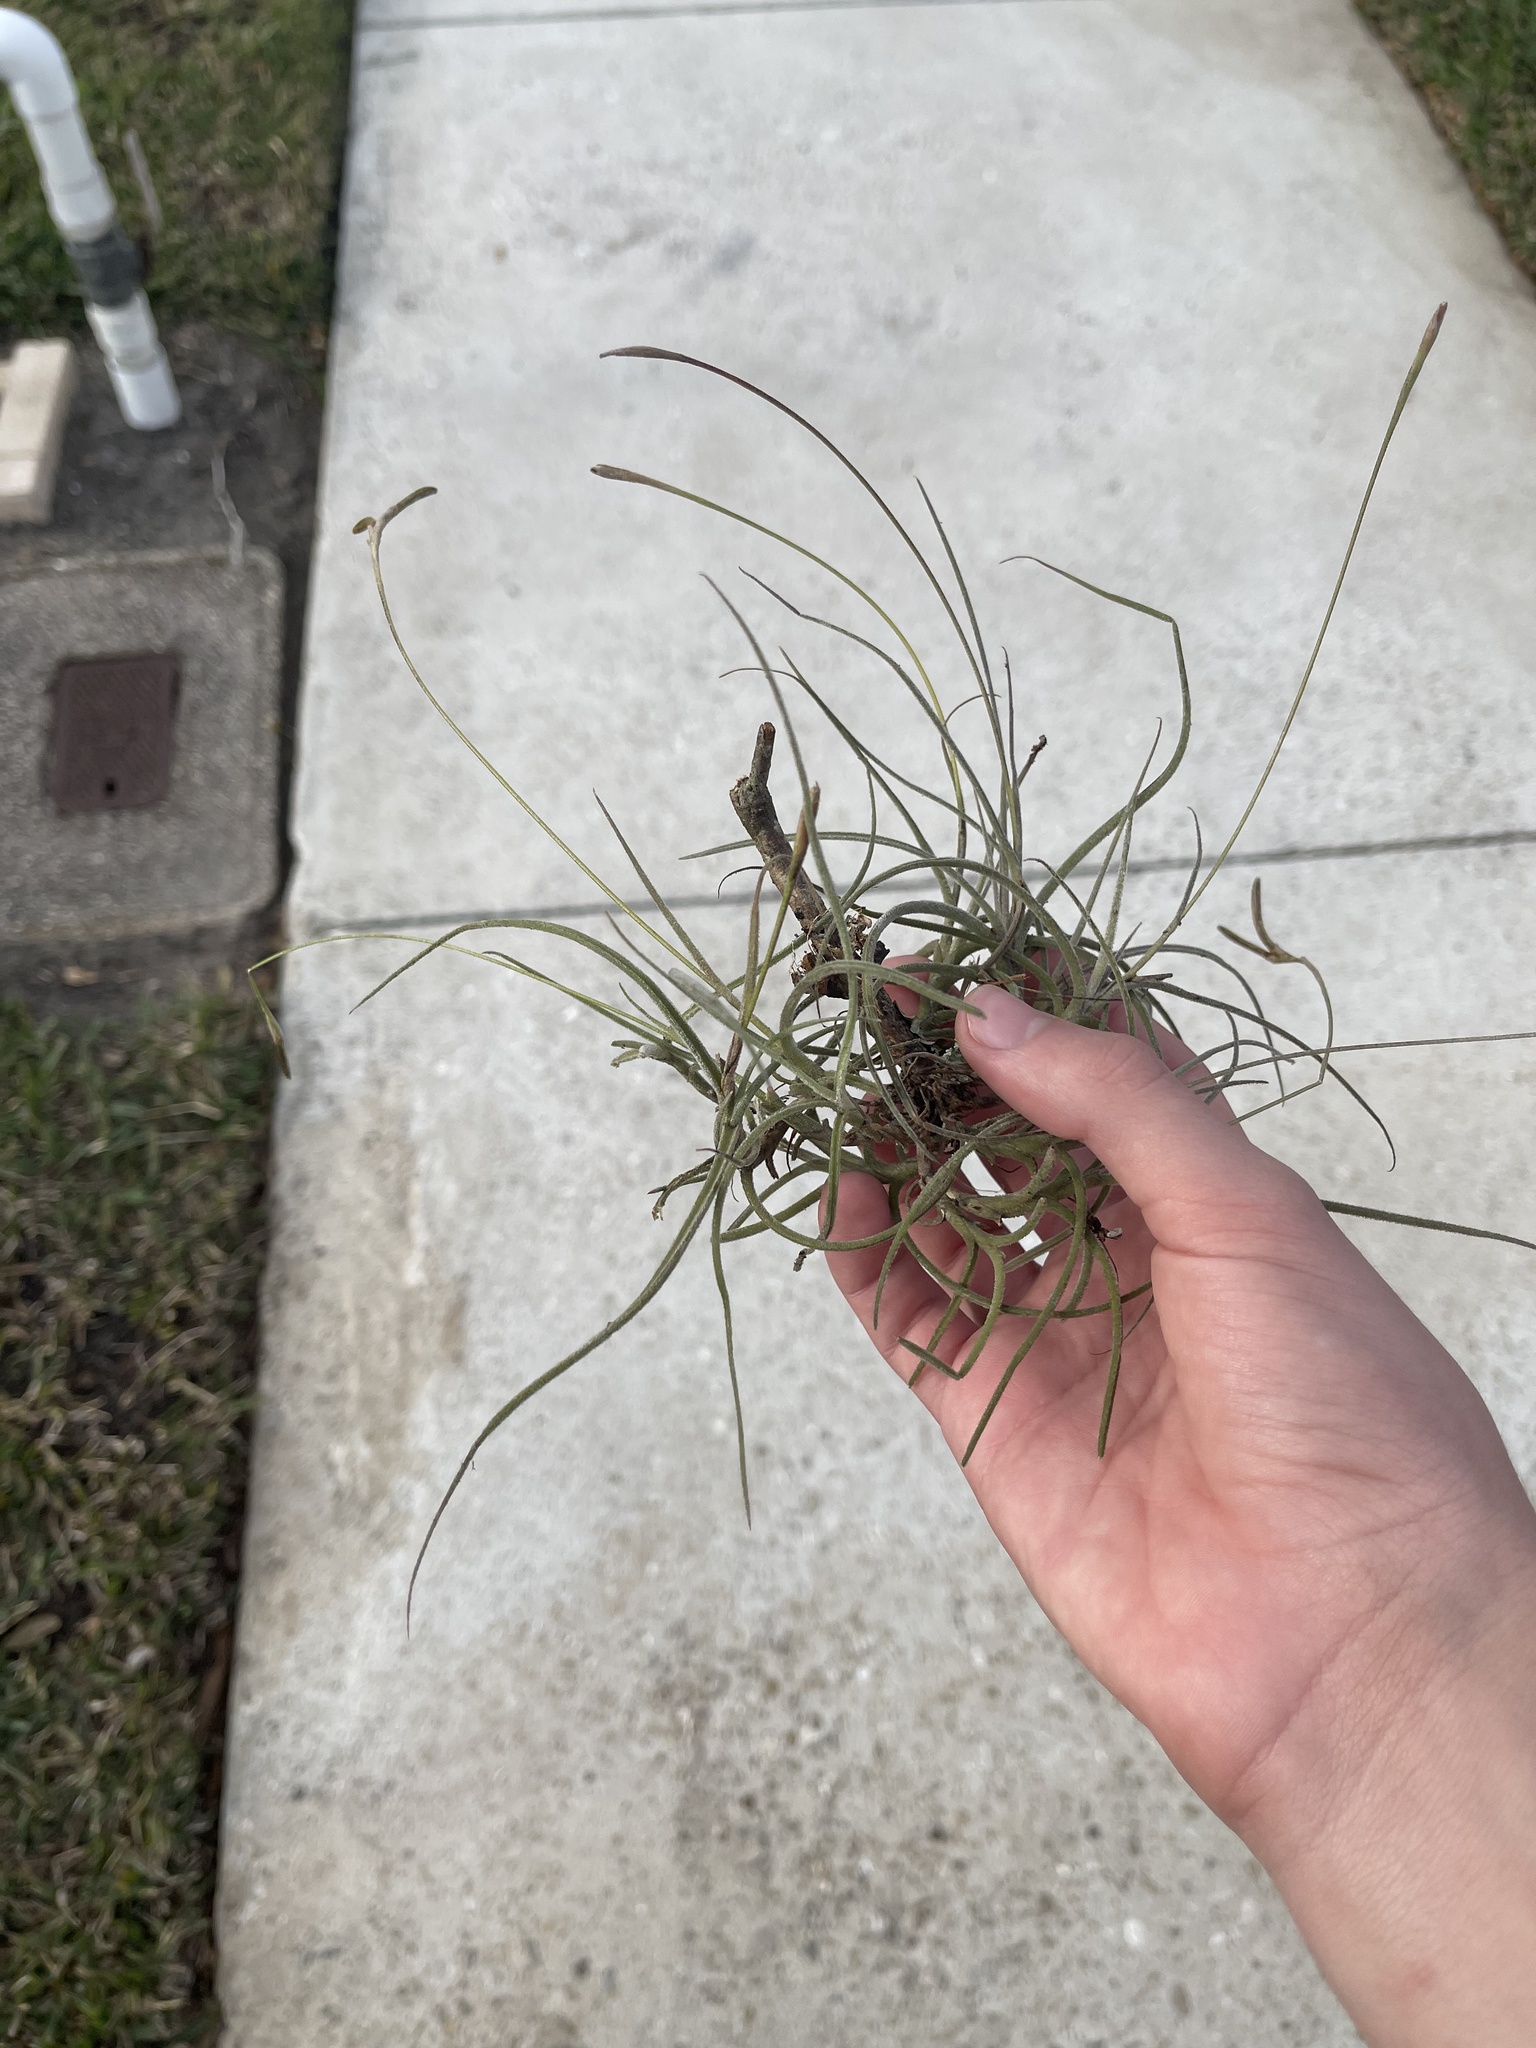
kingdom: Plantae
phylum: Tracheophyta
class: Liliopsida
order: Poales
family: Bromeliaceae
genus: Tillandsia
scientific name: Tillandsia recurvata
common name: Small ballmoss
